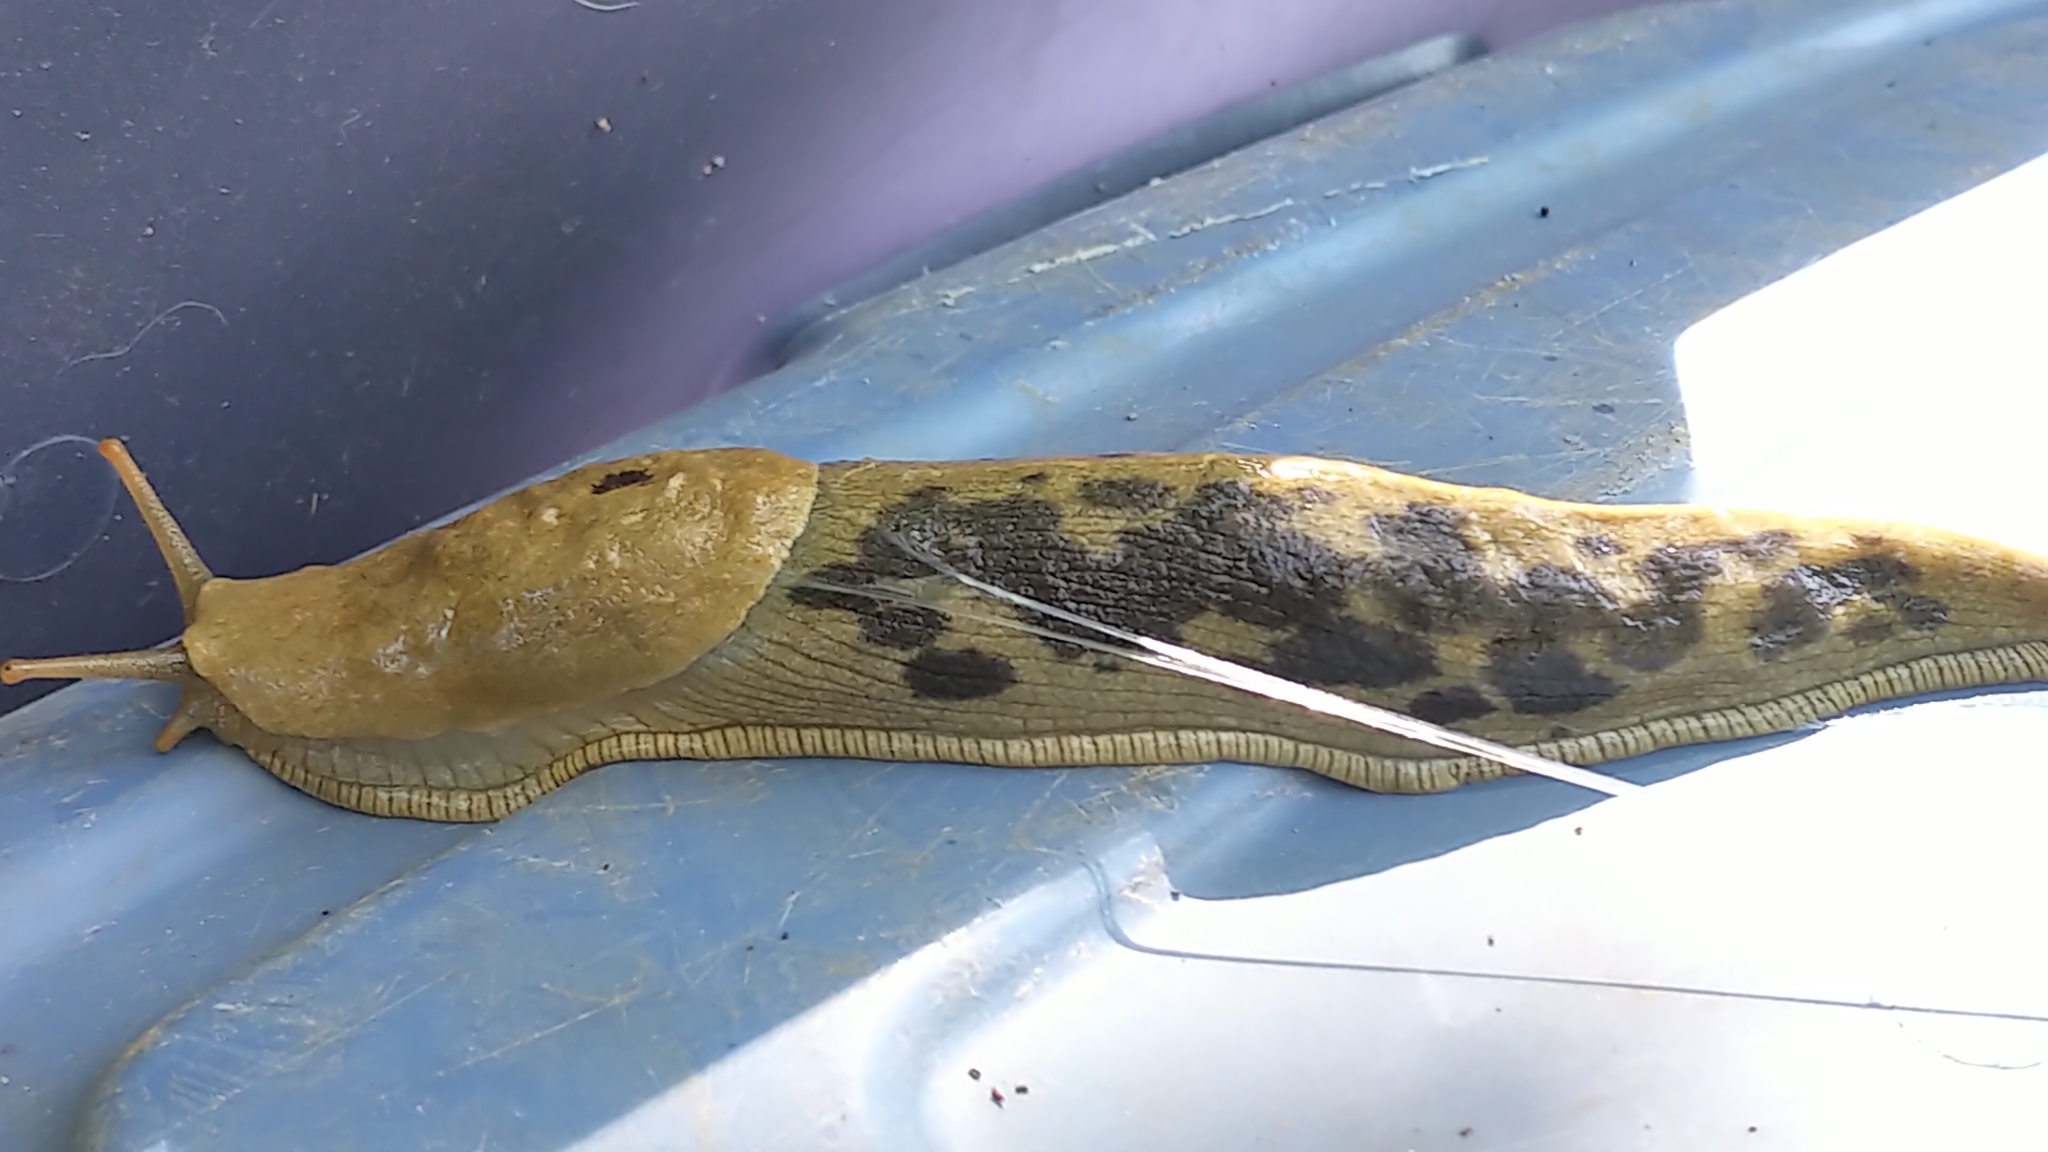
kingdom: Animalia
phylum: Mollusca
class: Gastropoda
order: Stylommatophora
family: Ariolimacidae
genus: Ariolimax
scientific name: Ariolimax columbianus
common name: Pacific banana slug
